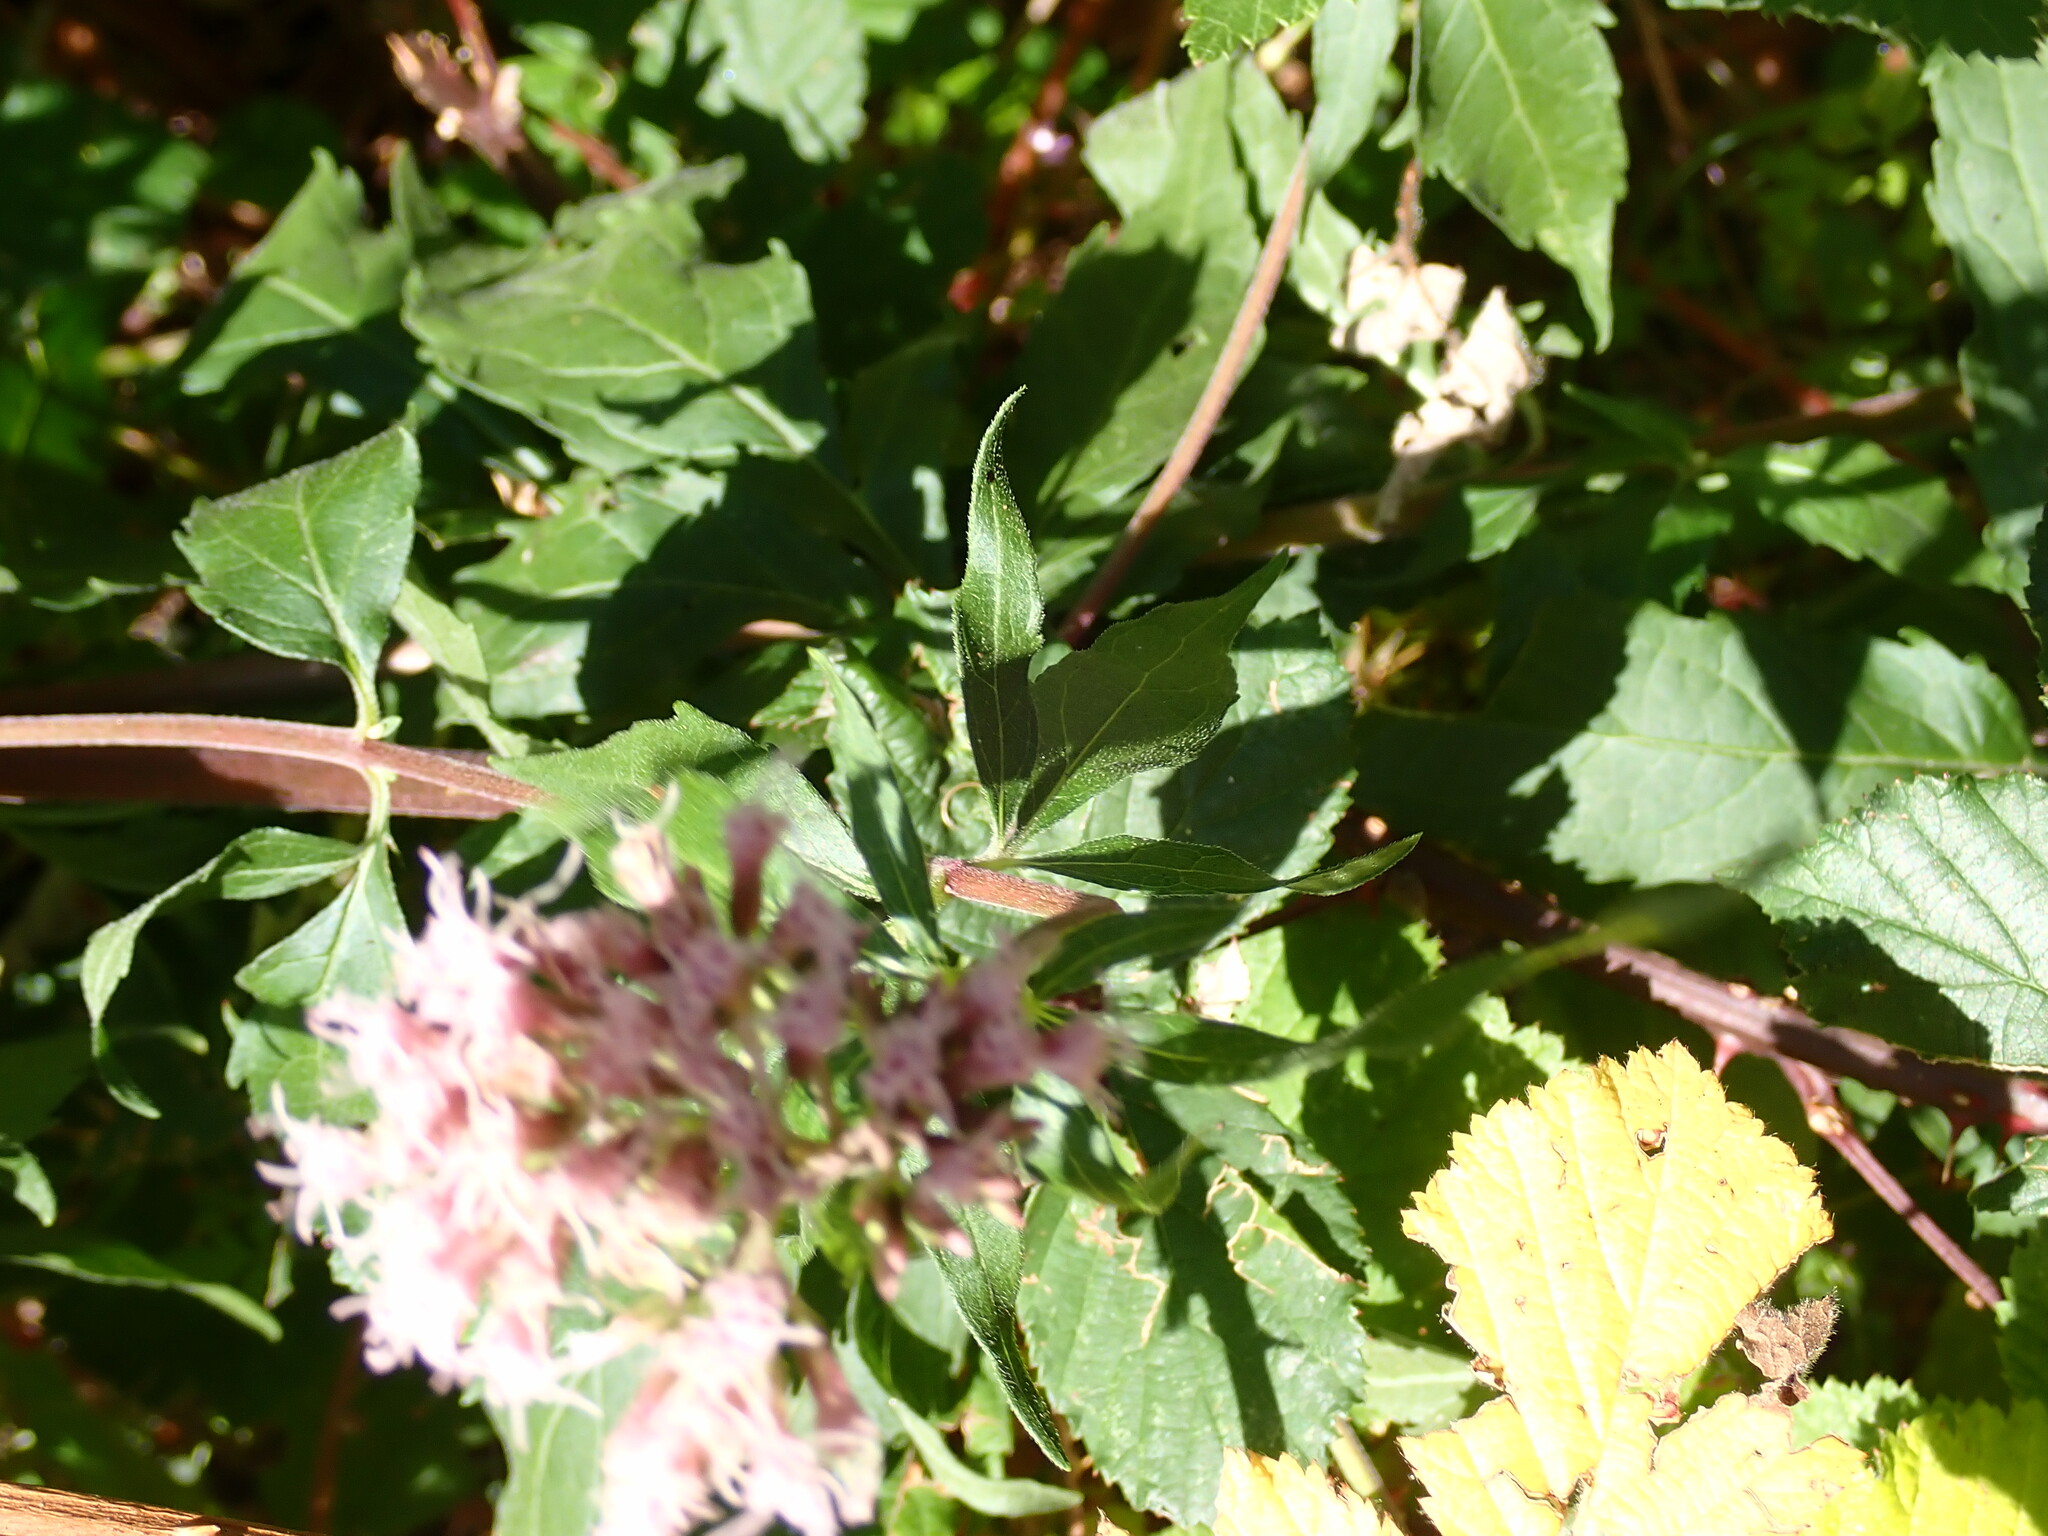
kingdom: Plantae
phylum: Tracheophyta
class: Magnoliopsida
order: Asterales
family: Asteraceae
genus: Eupatorium
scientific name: Eupatorium cannabinum
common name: Hemp-agrimony
